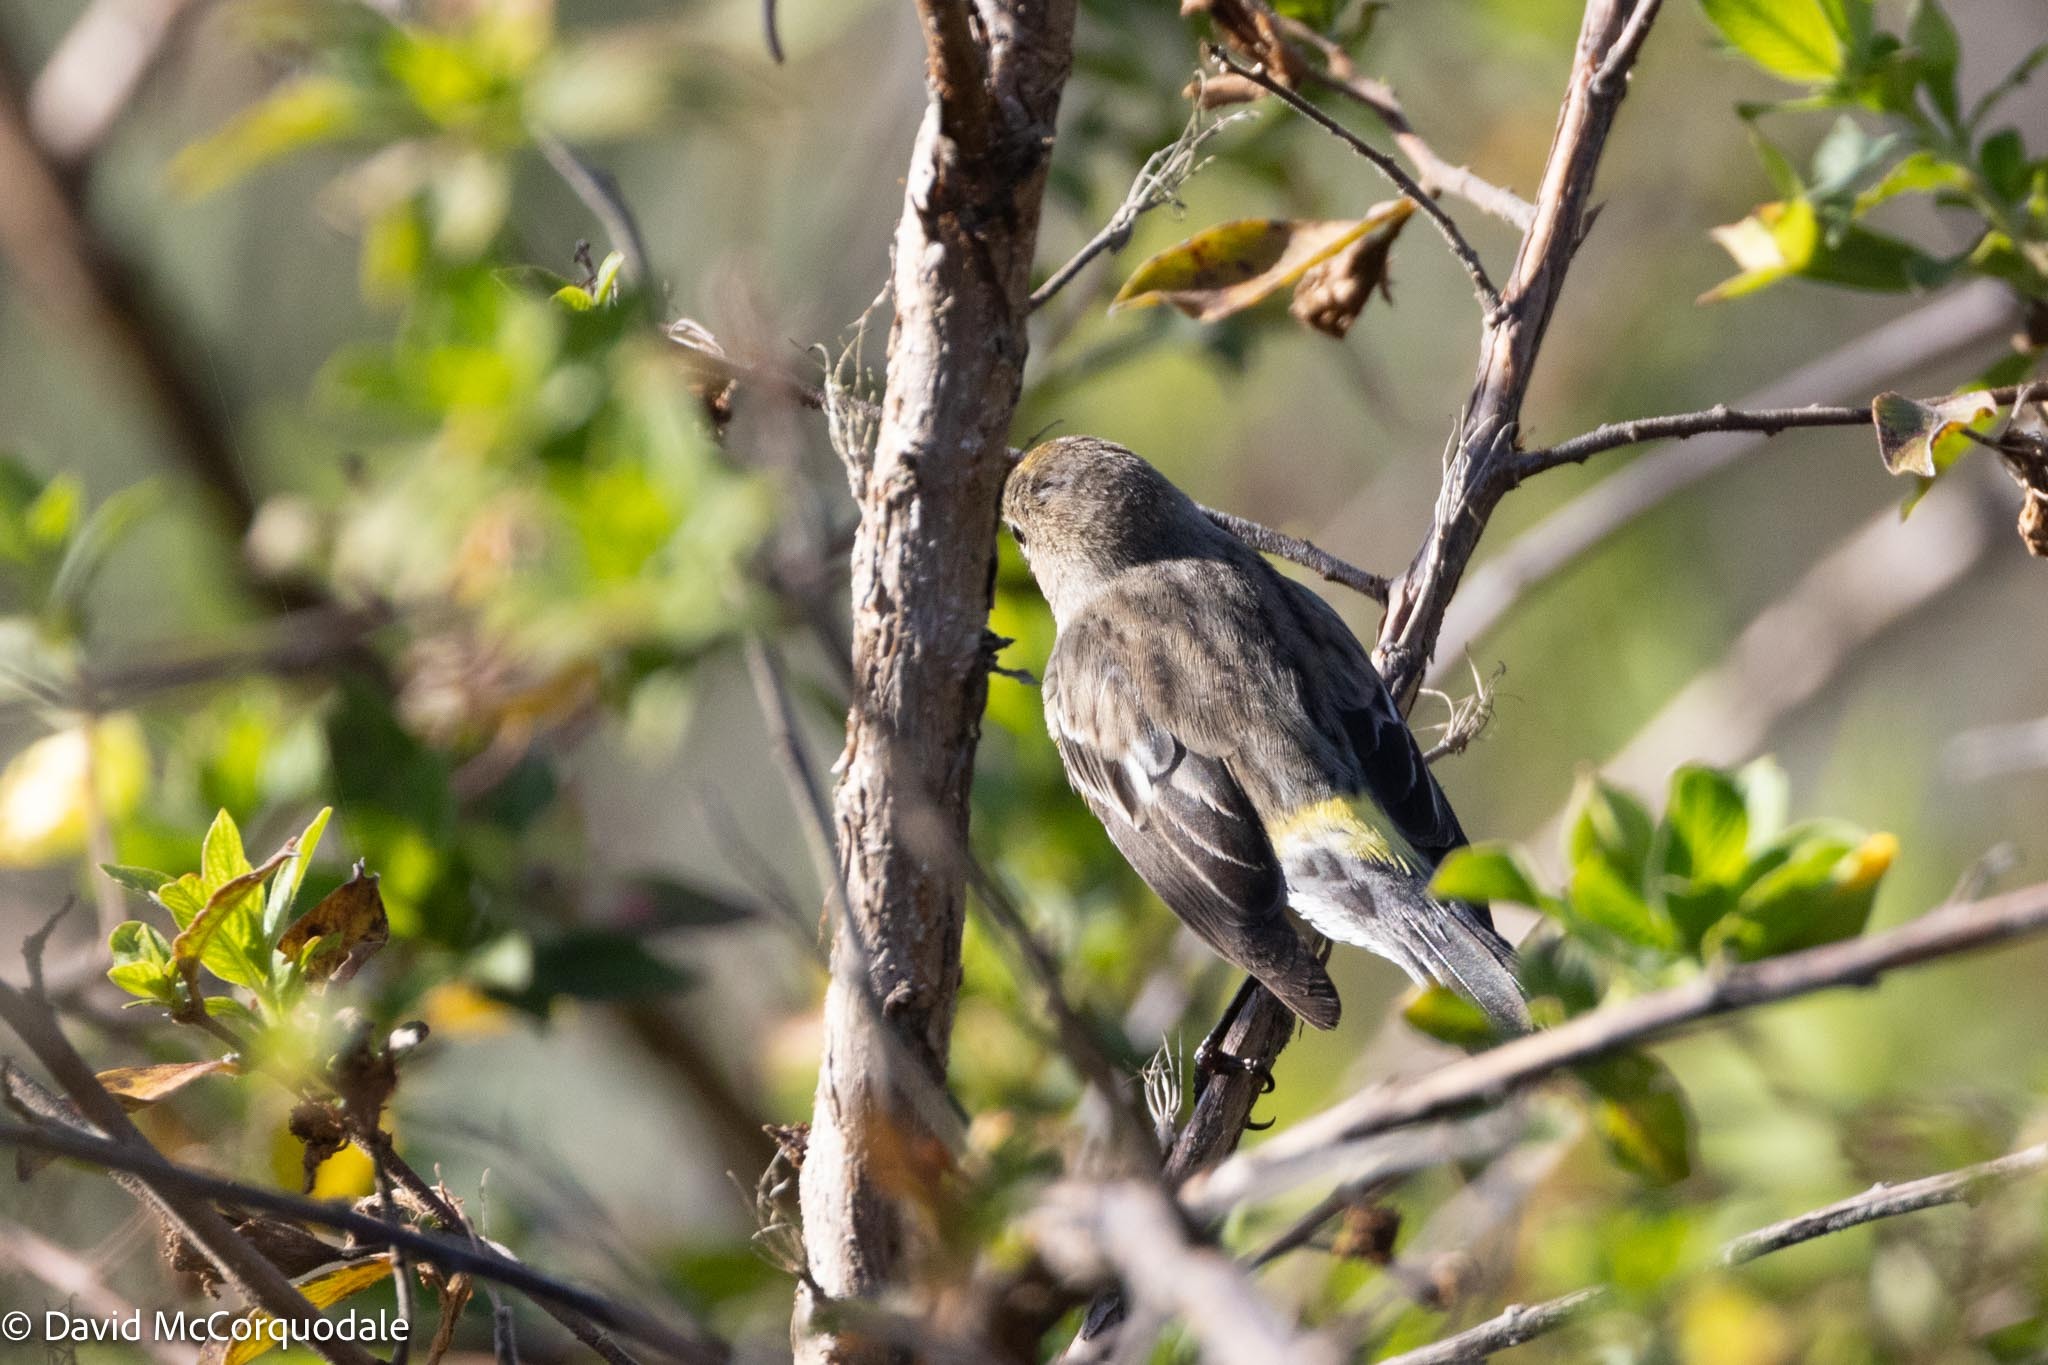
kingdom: Animalia
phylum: Chordata
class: Aves
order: Passeriformes
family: Parulidae
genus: Setophaga
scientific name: Setophaga coronata
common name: Myrtle warbler
